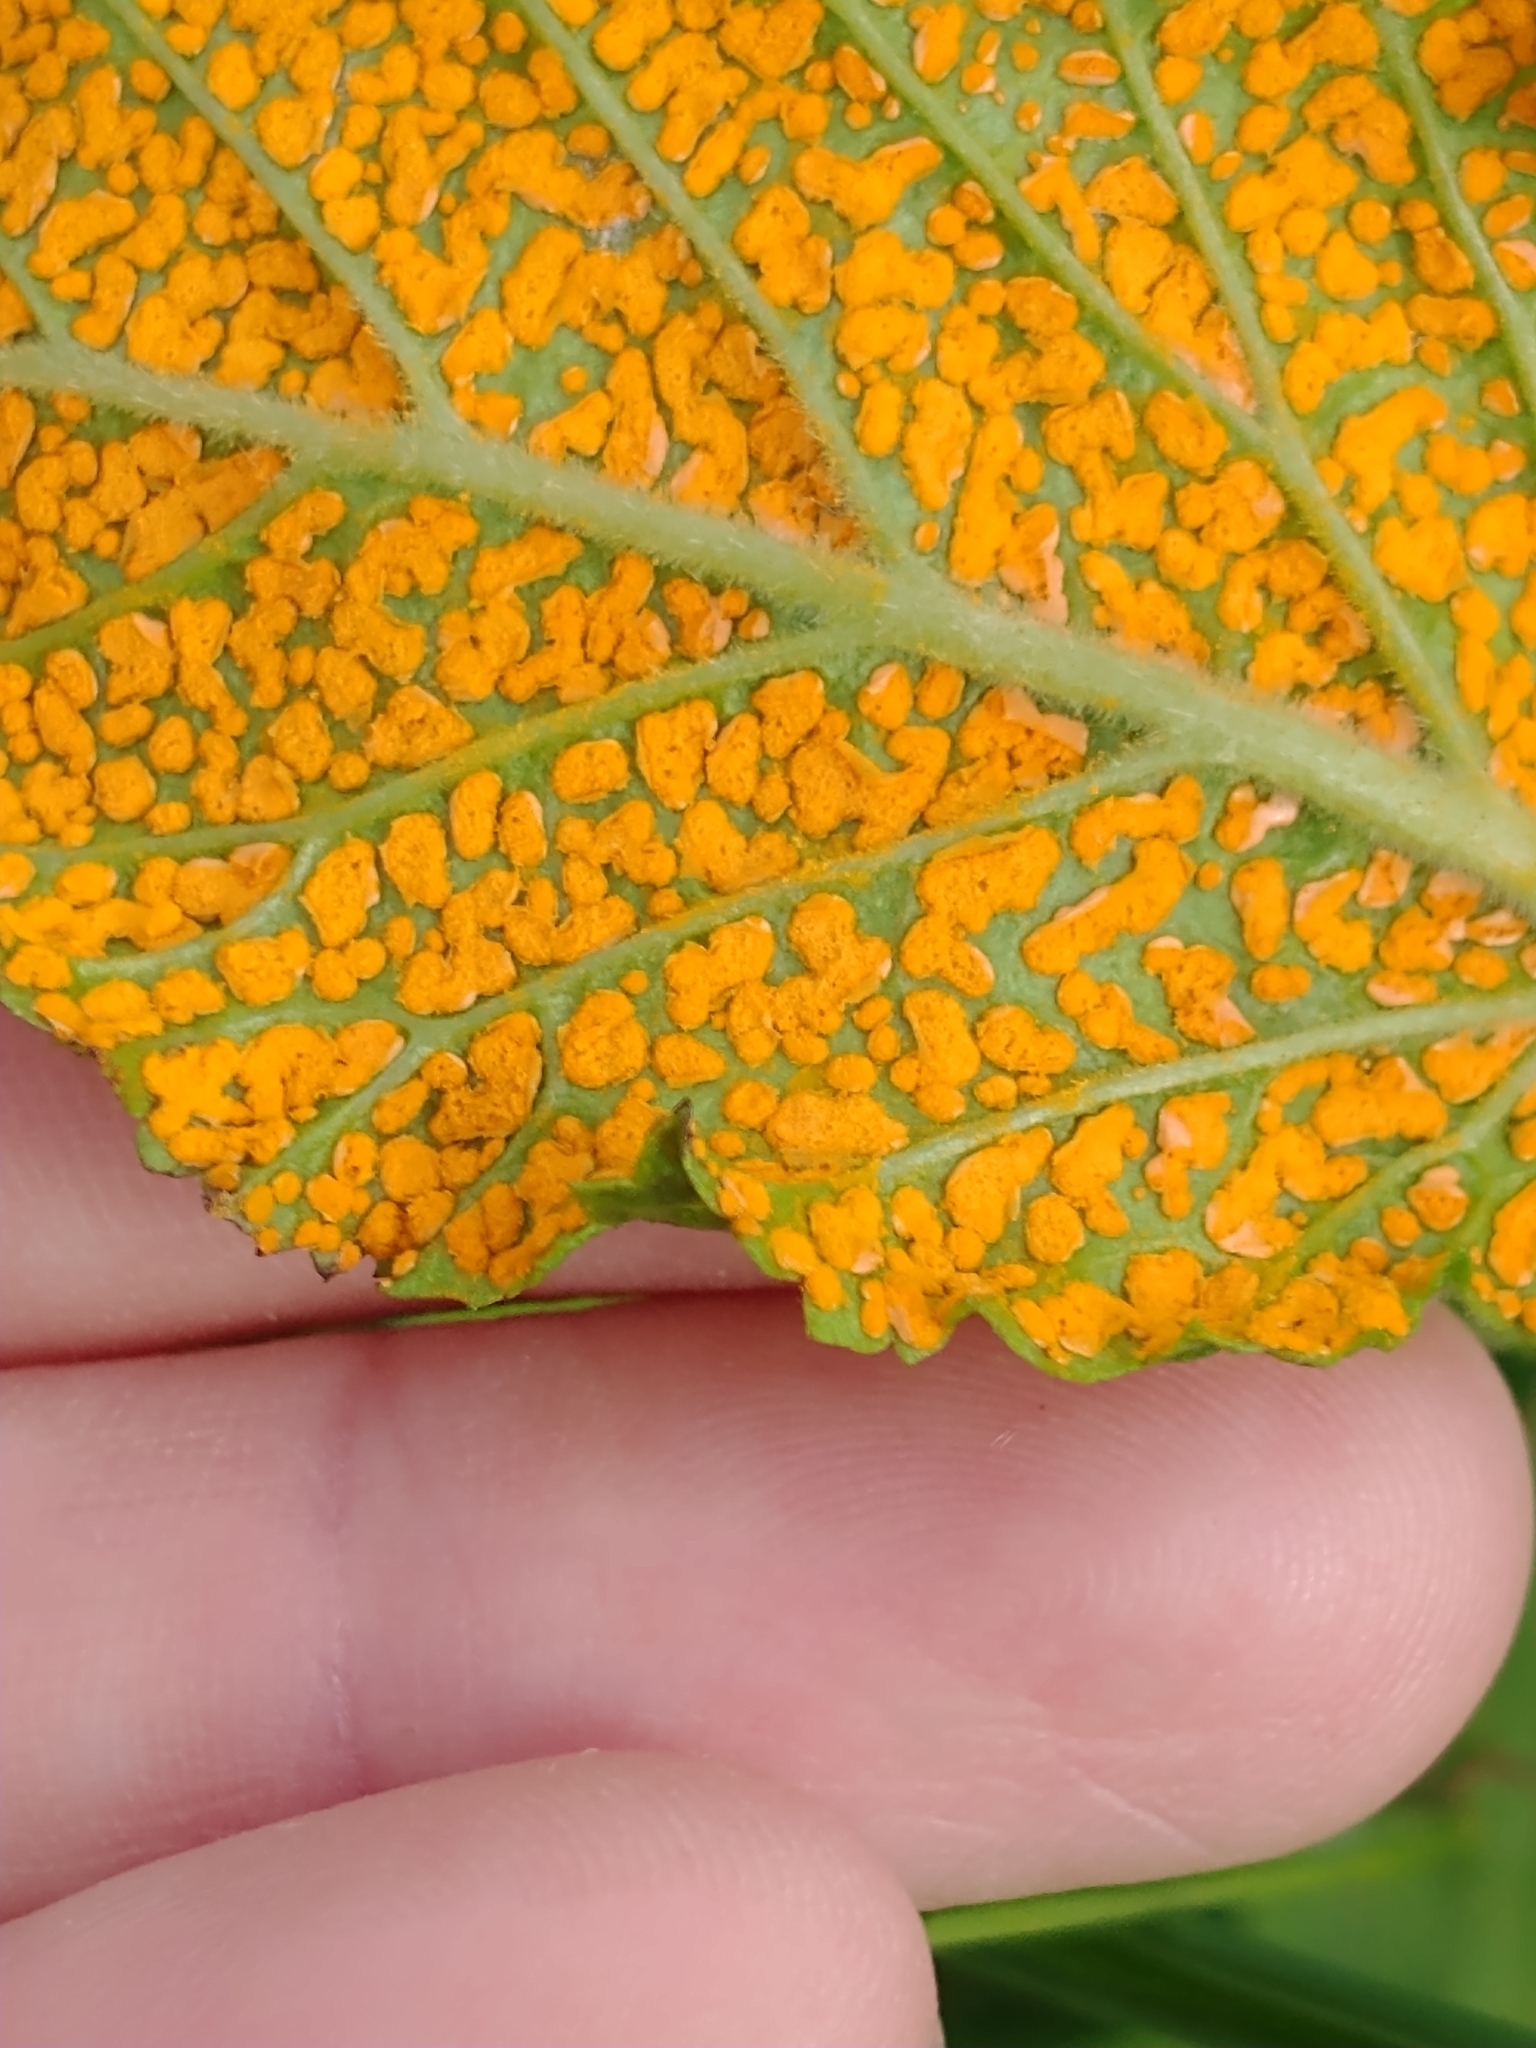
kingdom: Fungi
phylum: Basidiomycota
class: Pucciniomycetes
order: Pucciniales
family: Phragmidiaceae
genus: Gymnoconia
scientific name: Gymnoconia
